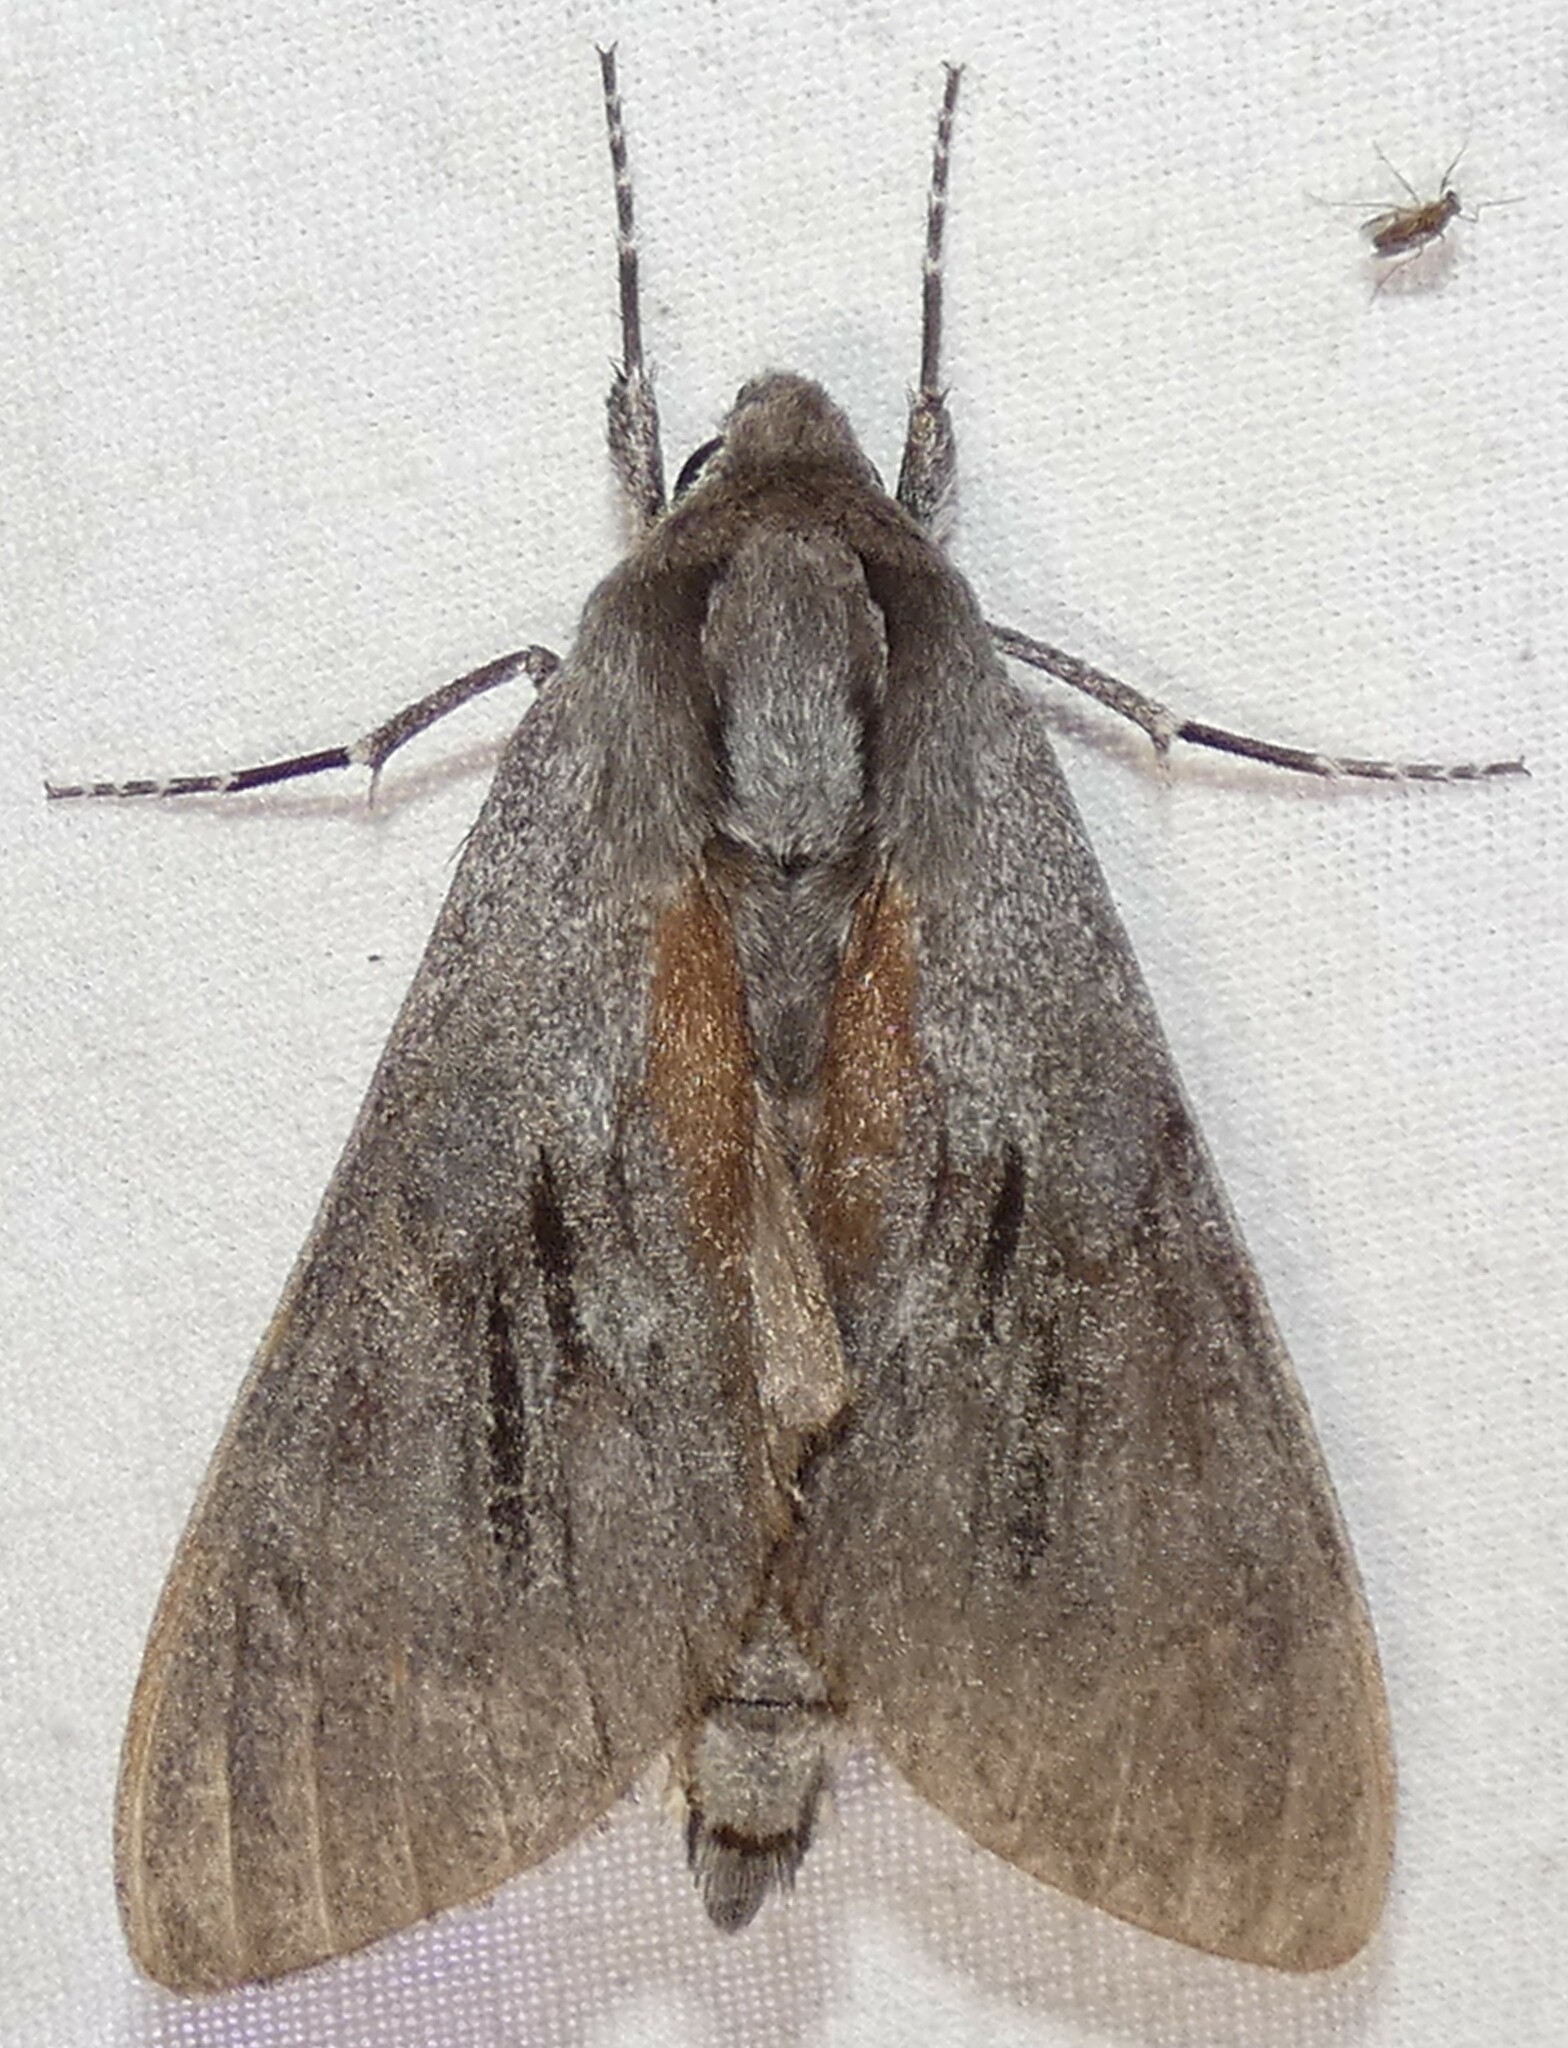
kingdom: Animalia
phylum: Arthropoda
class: Insecta
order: Lepidoptera
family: Sphingidae
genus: Lapara
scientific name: Lapara coniferarum
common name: Southern pine sphinx
